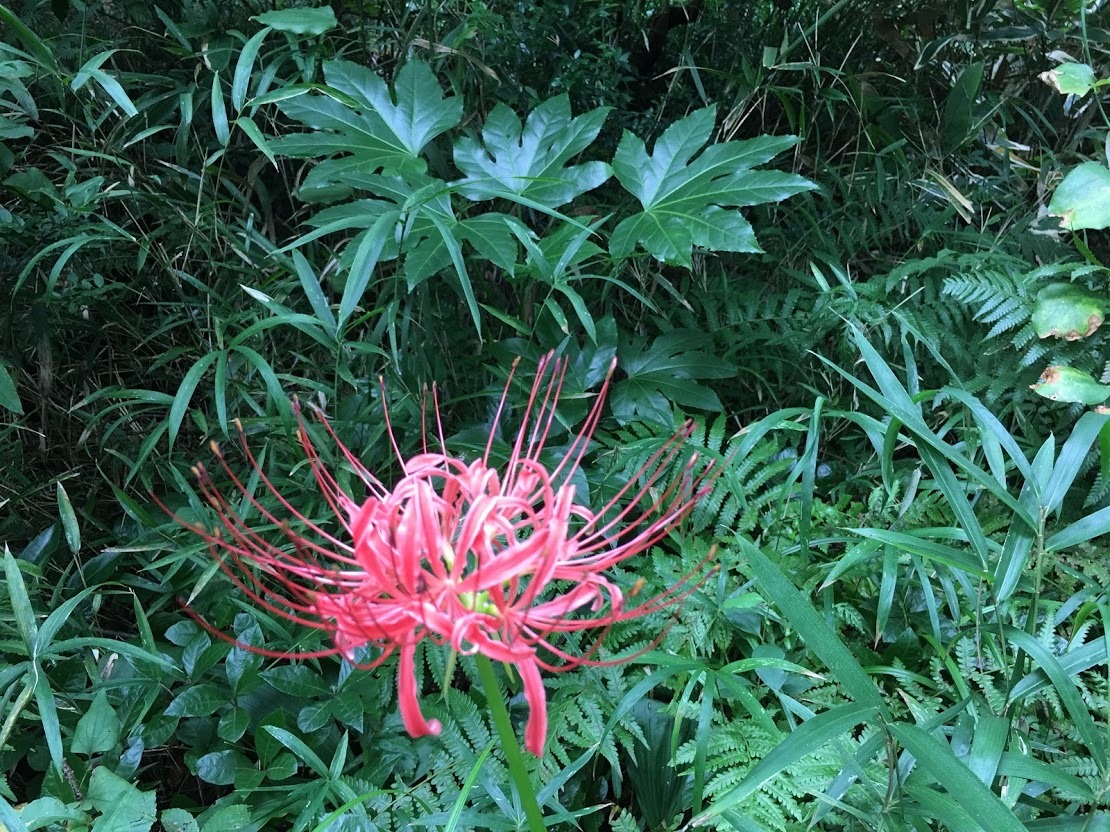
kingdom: Plantae
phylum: Tracheophyta
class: Liliopsida
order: Asparagales
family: Amaryllidaceae
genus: Lycoris
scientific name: Lycoris radiata
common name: Red spider lily
